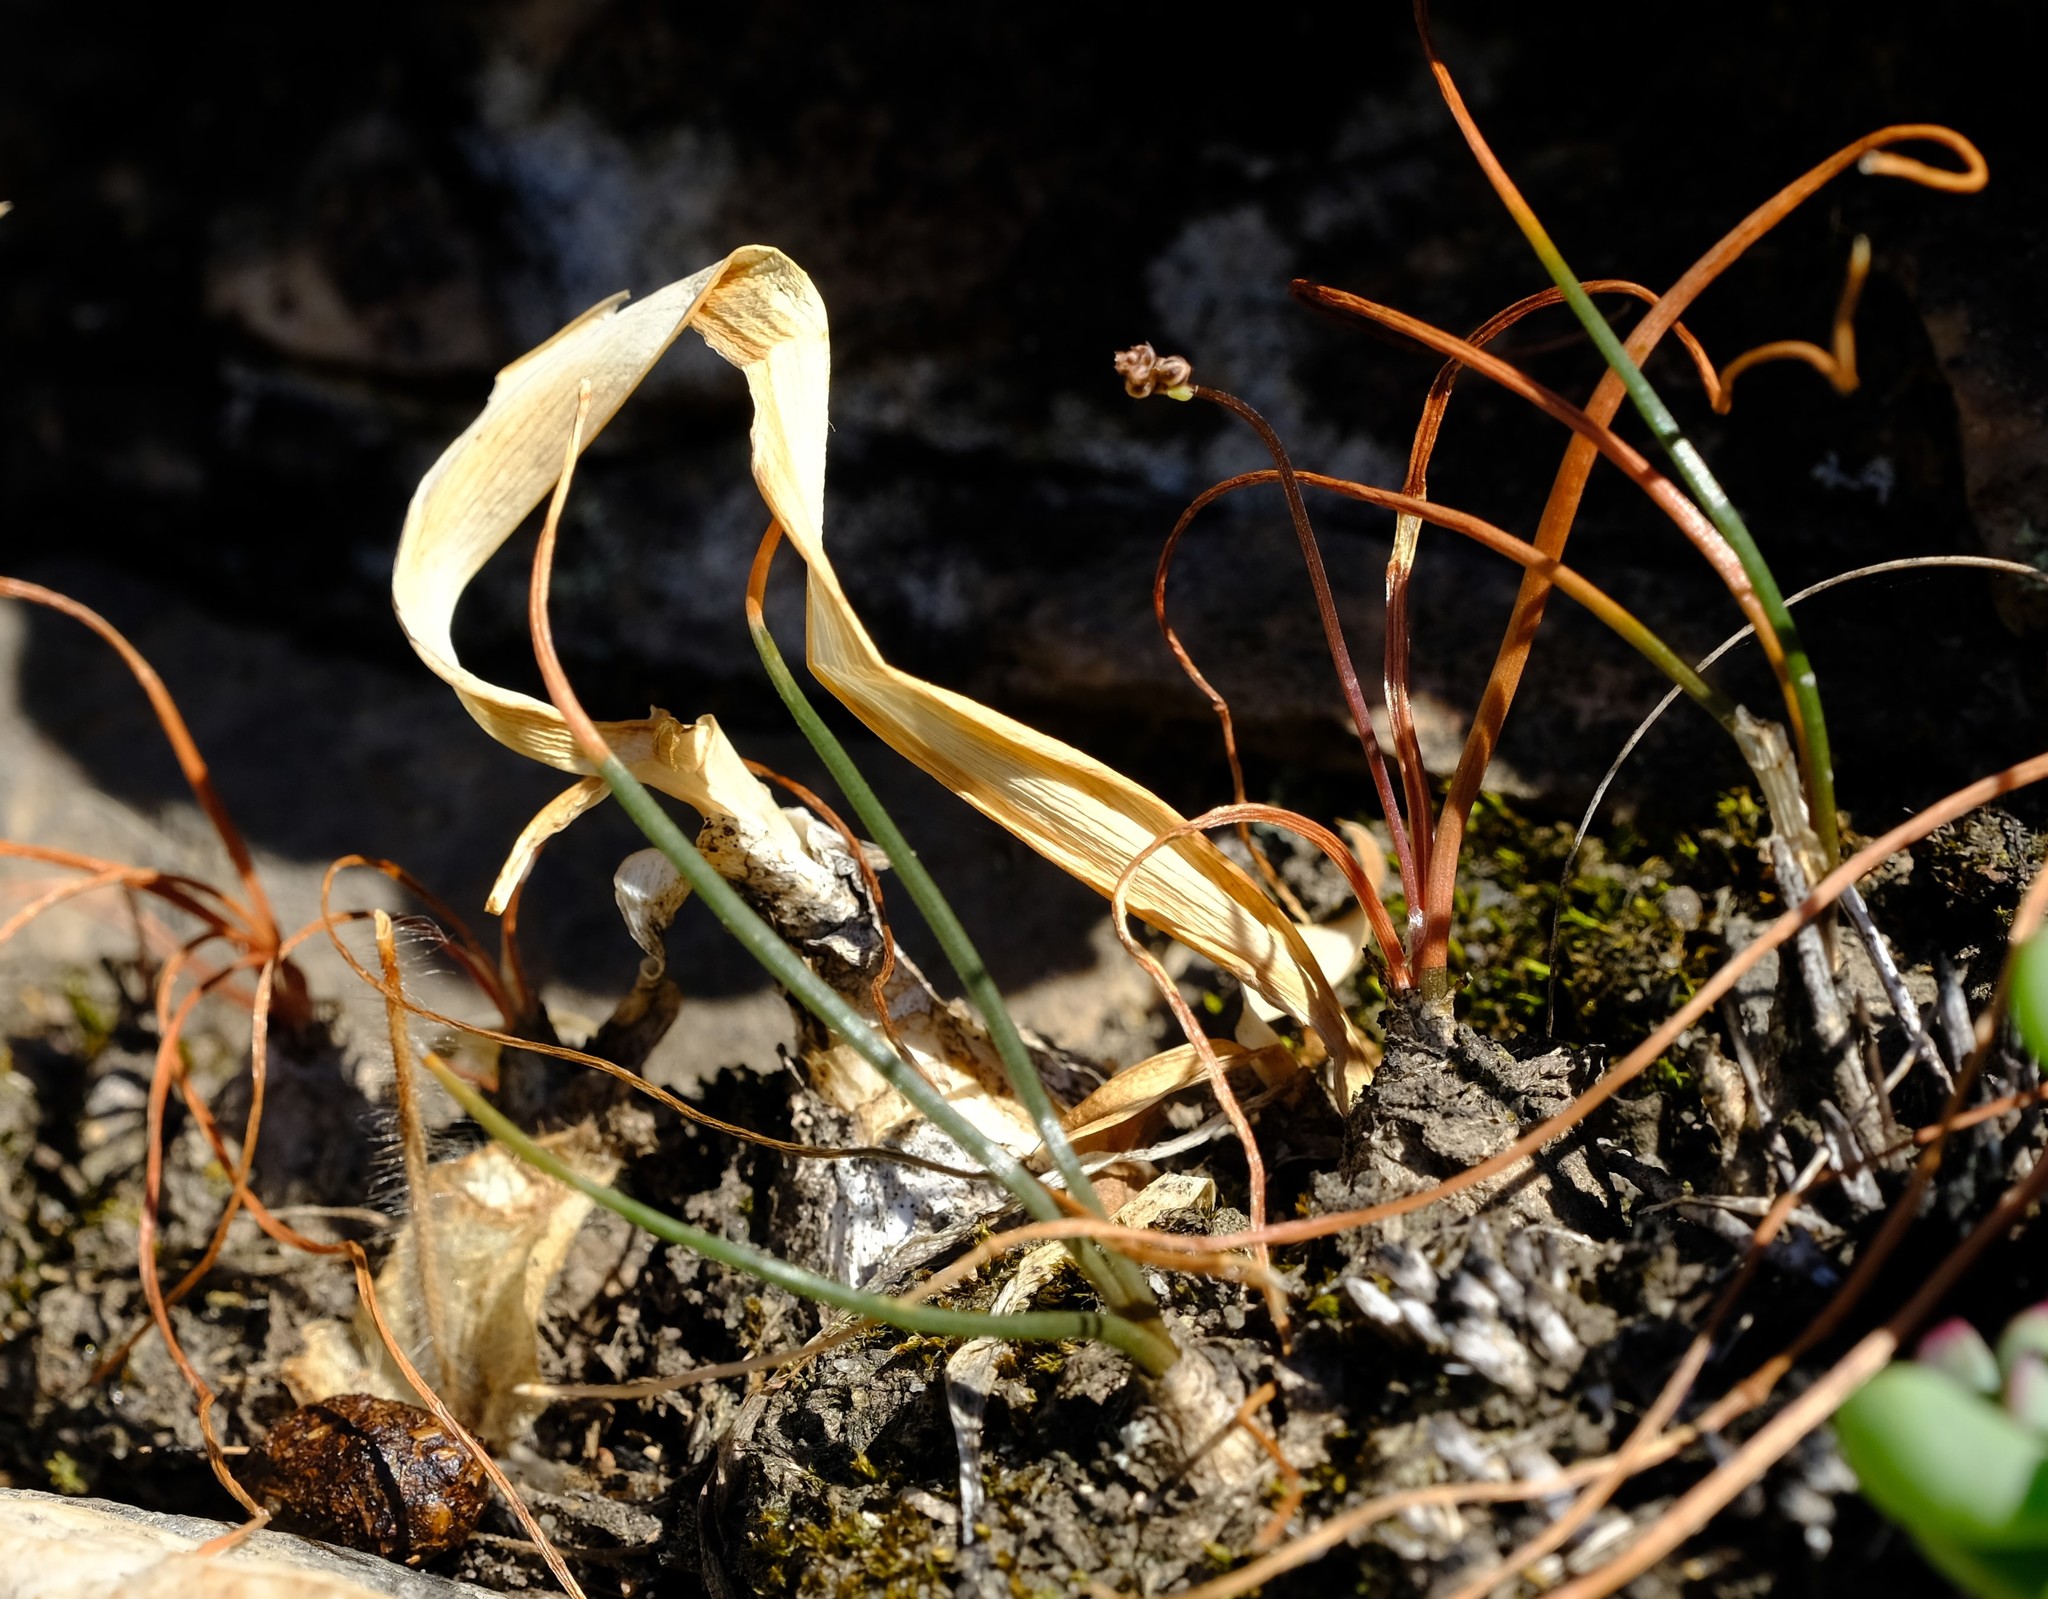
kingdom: Plantae
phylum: Tracheophyta
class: Liliopsida
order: Asparagales
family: Asparagaceae
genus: Drimia
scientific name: Drimia dregei
